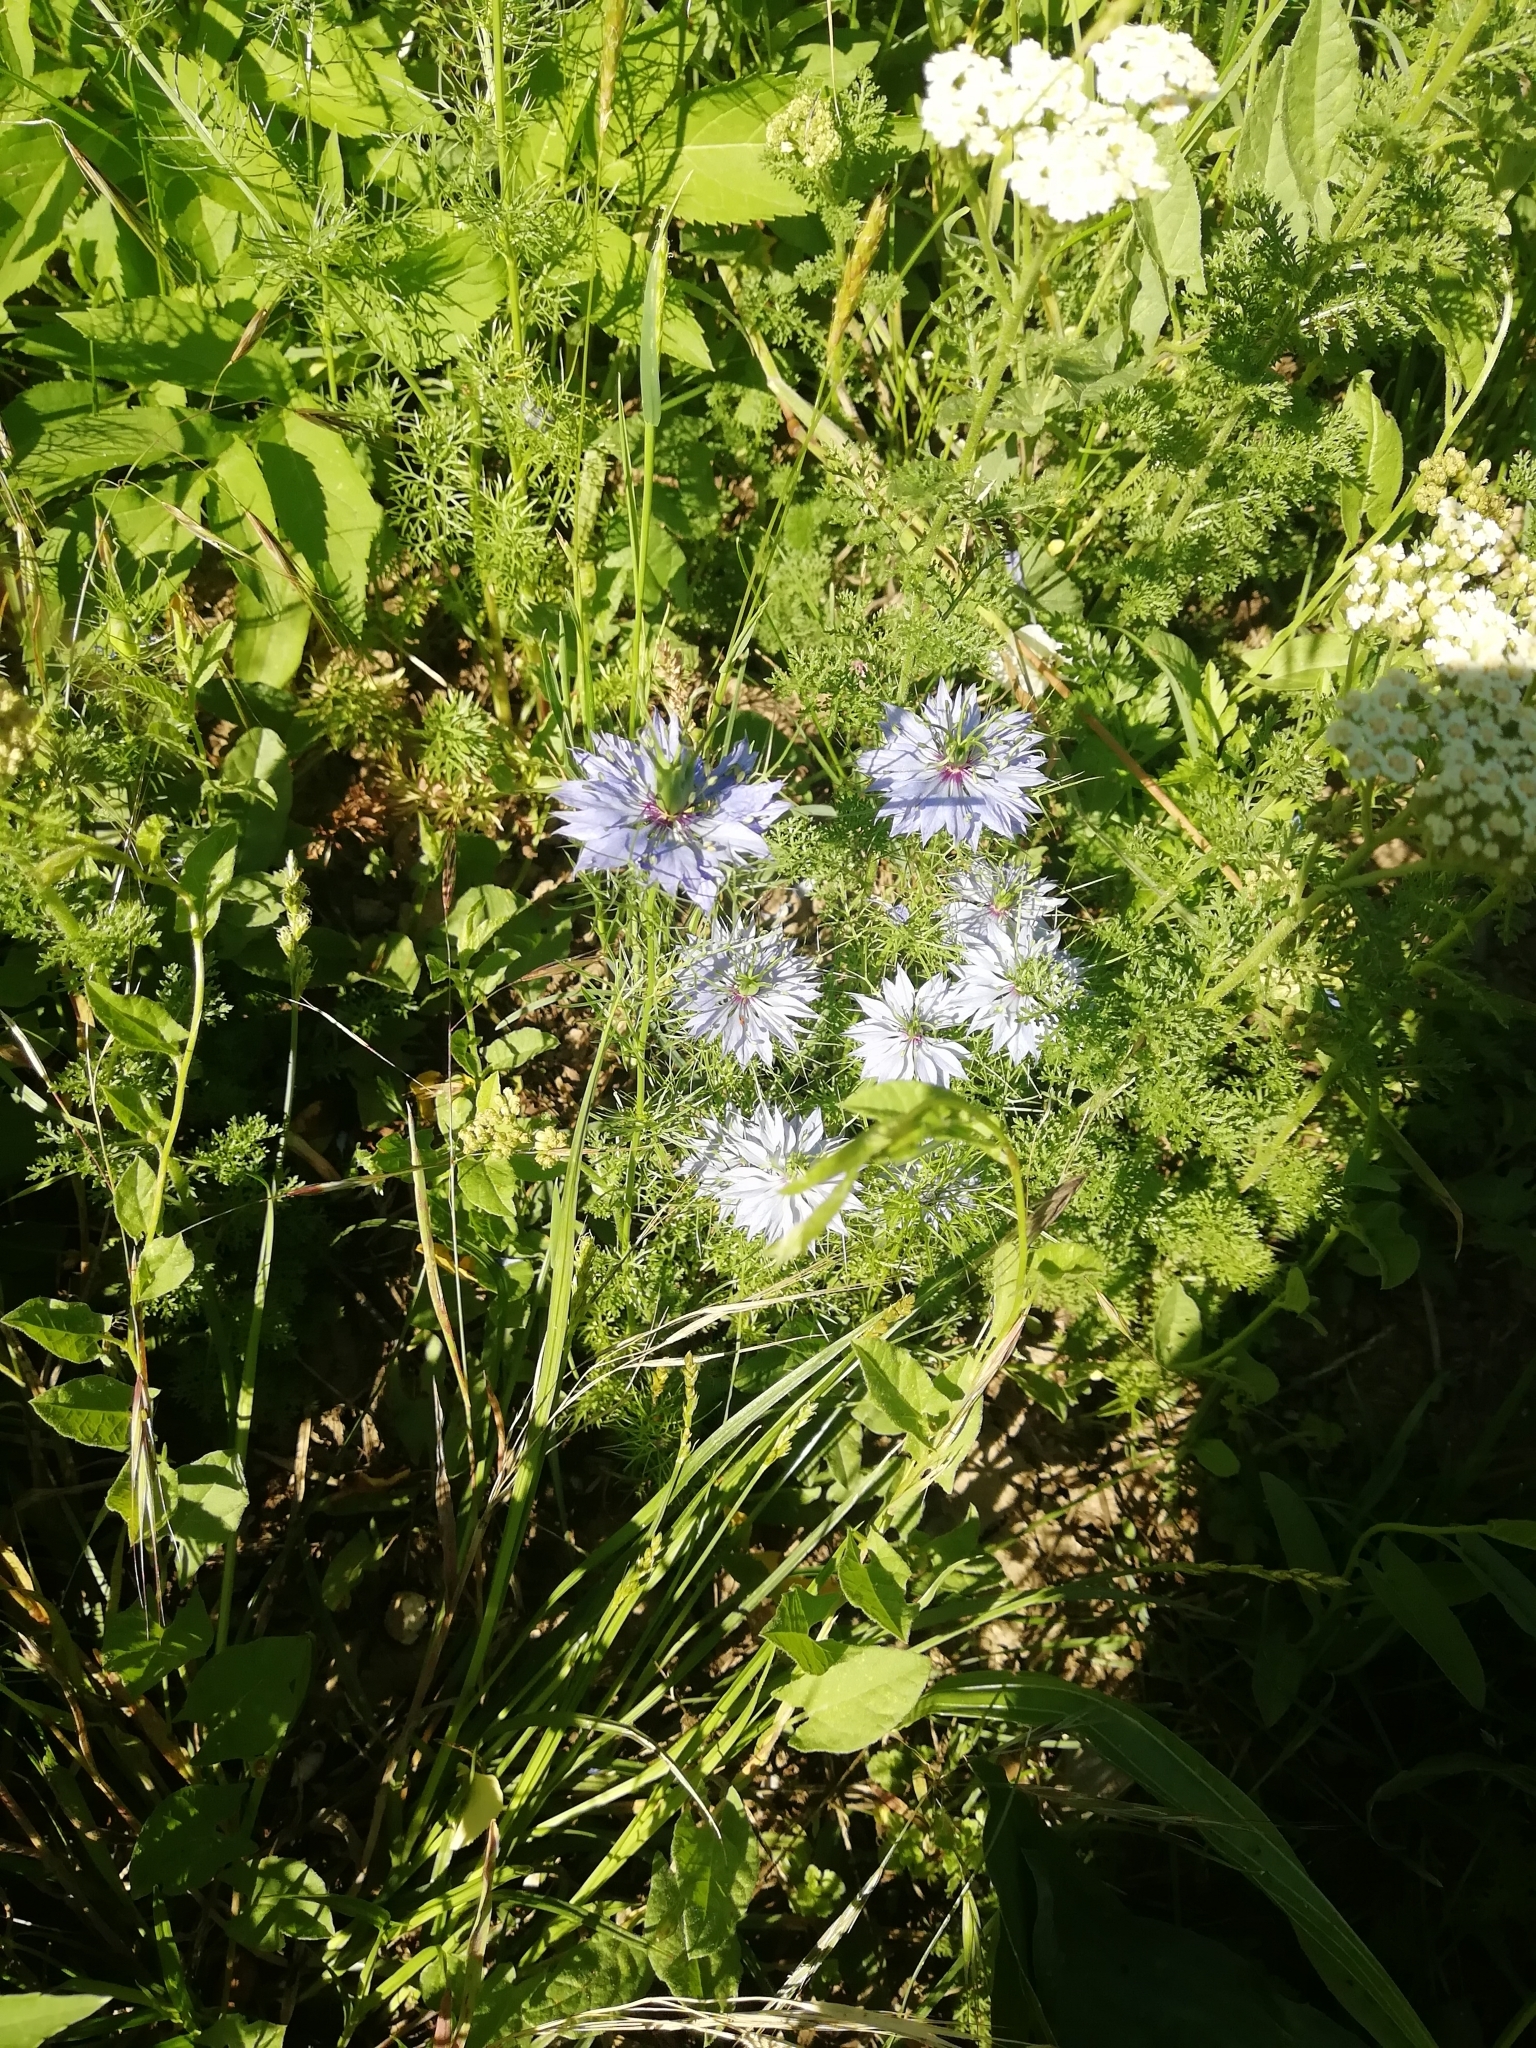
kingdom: Plantae
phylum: Tracheophyta
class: Magnoliopsida
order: Ranunculales
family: Ranunculaceae
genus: Nigella
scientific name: Nigella damascena
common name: Love-in-a-mist
